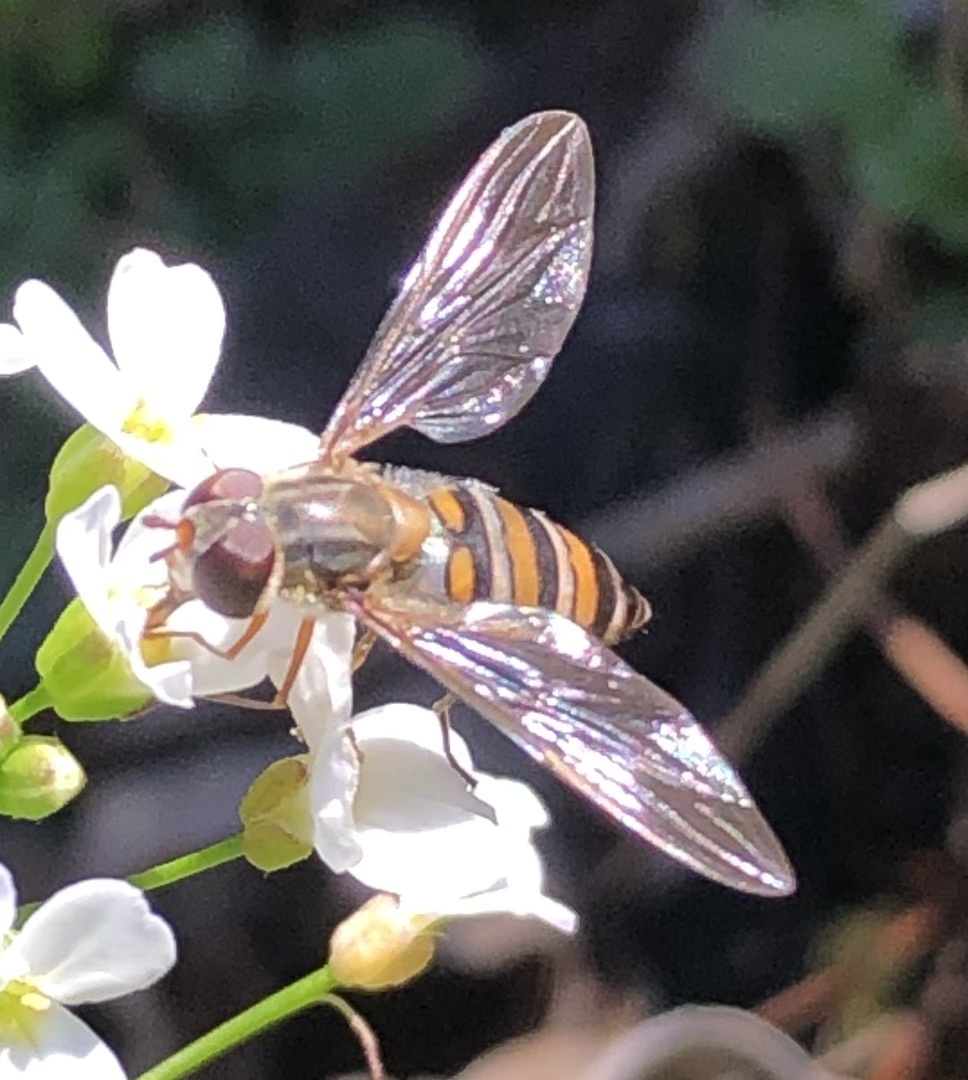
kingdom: Animalia
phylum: Arthropoda
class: Insecta
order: Diptera
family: Syrphidae
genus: Episyrphus
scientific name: Episyrphus balteatus
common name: Marmalade hoverfly
